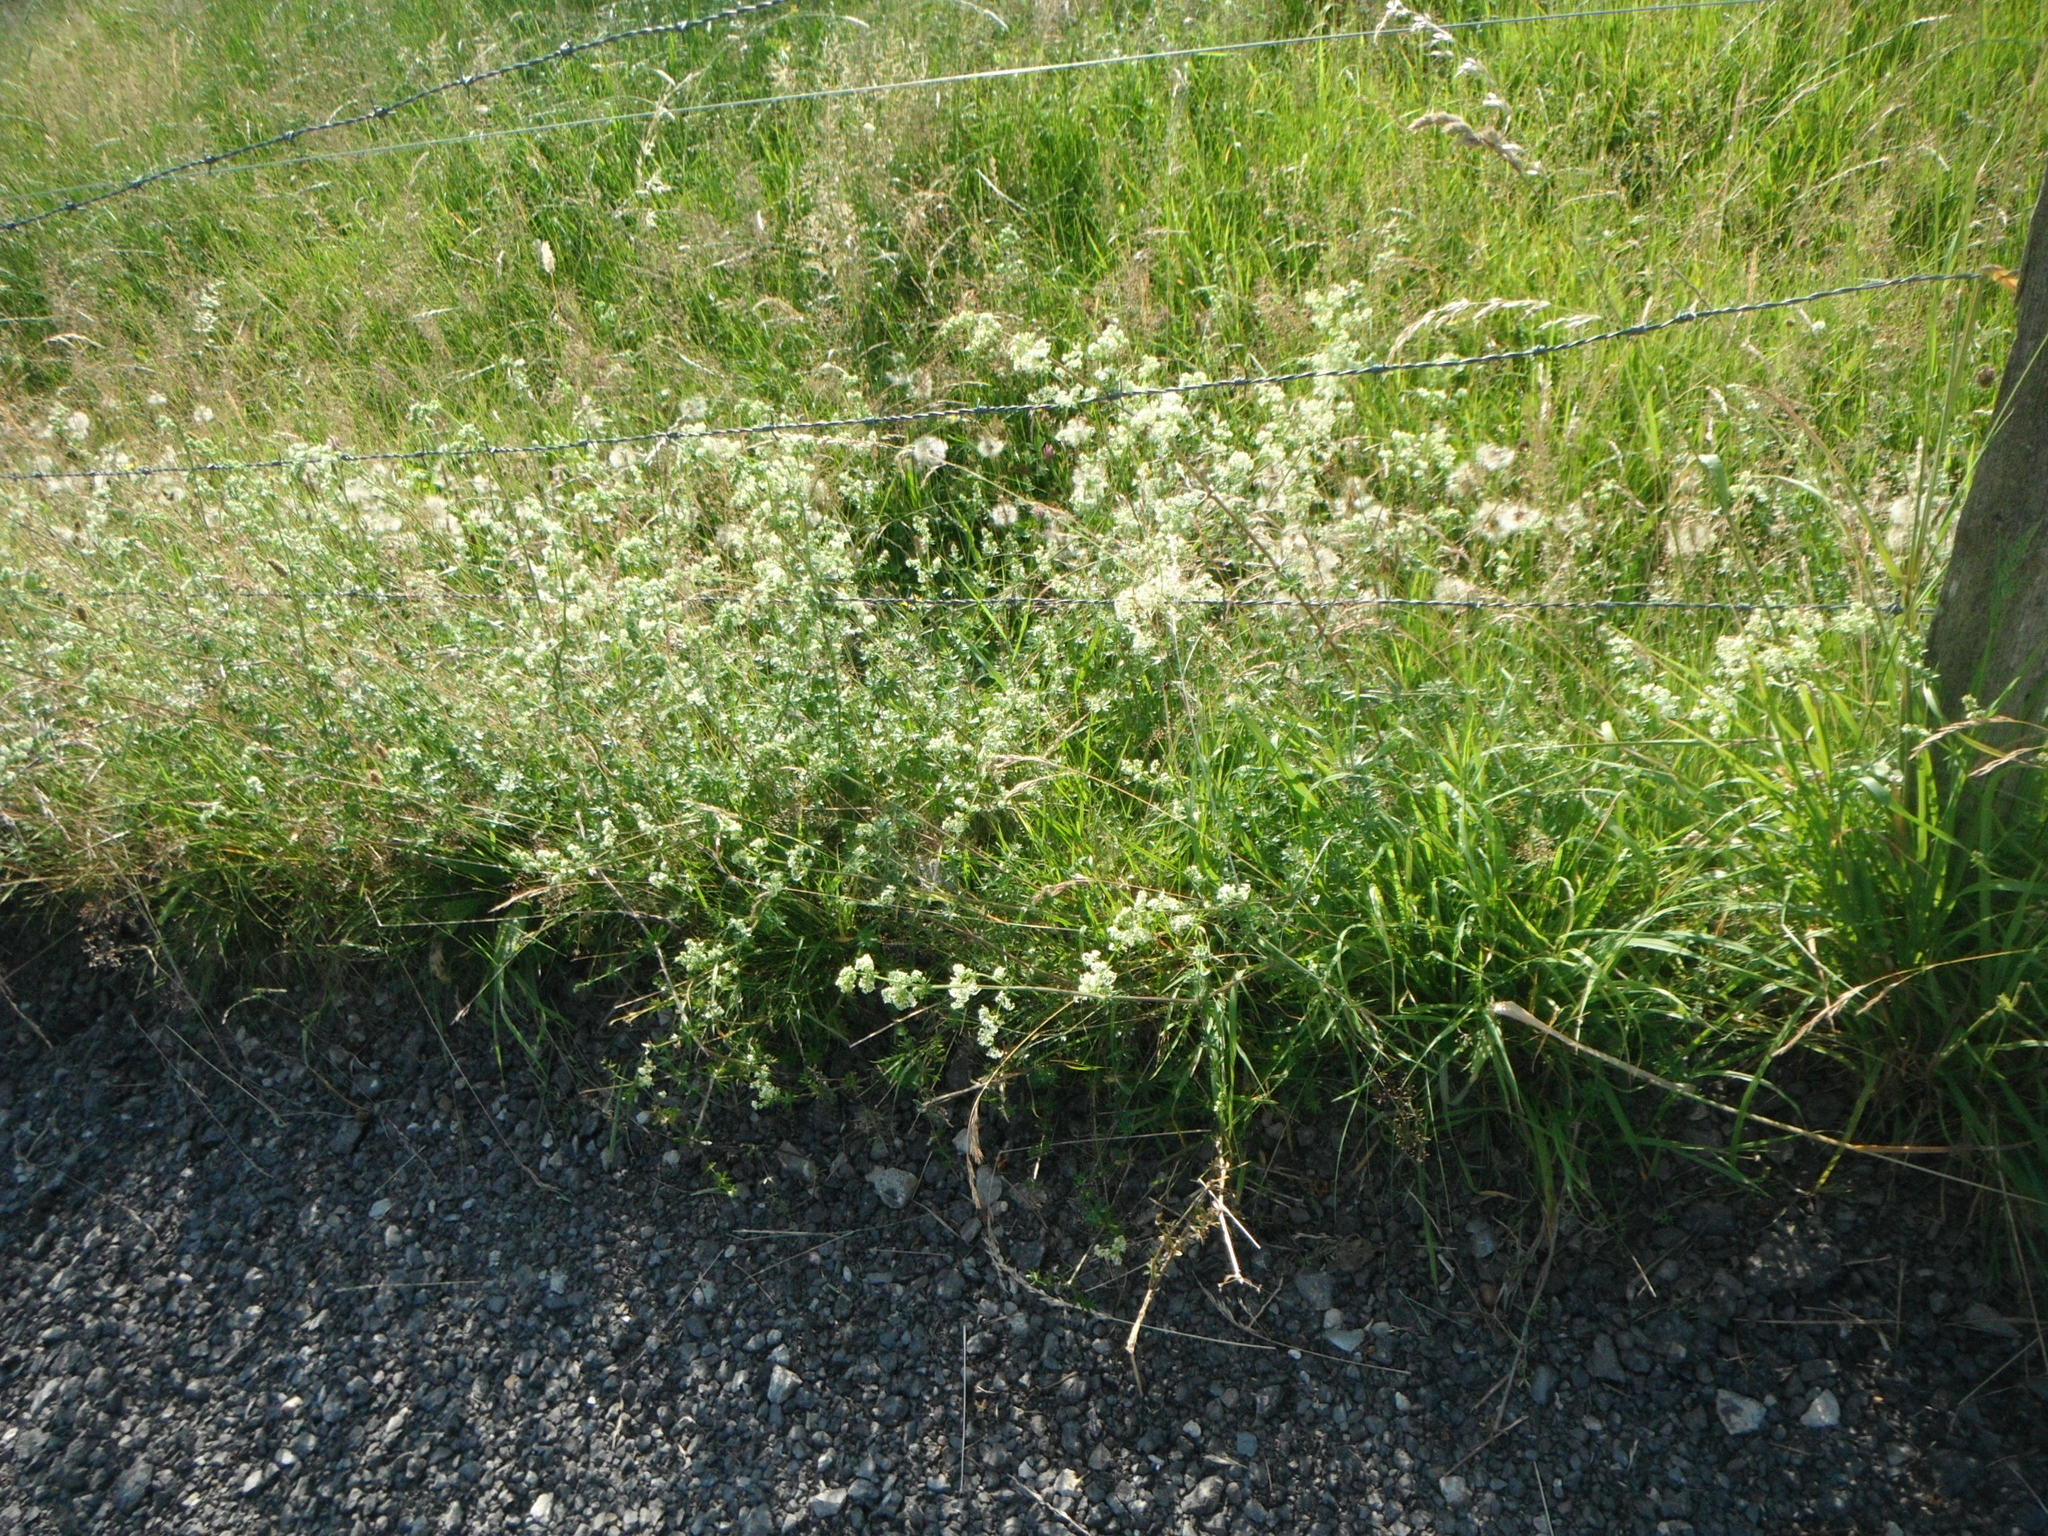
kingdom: Plantae
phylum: Tracheophyta
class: Magnoliopsida
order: Gentianales
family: Rubiaceae
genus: Galium
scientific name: Galium mollugo
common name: Hedge bedstraw
